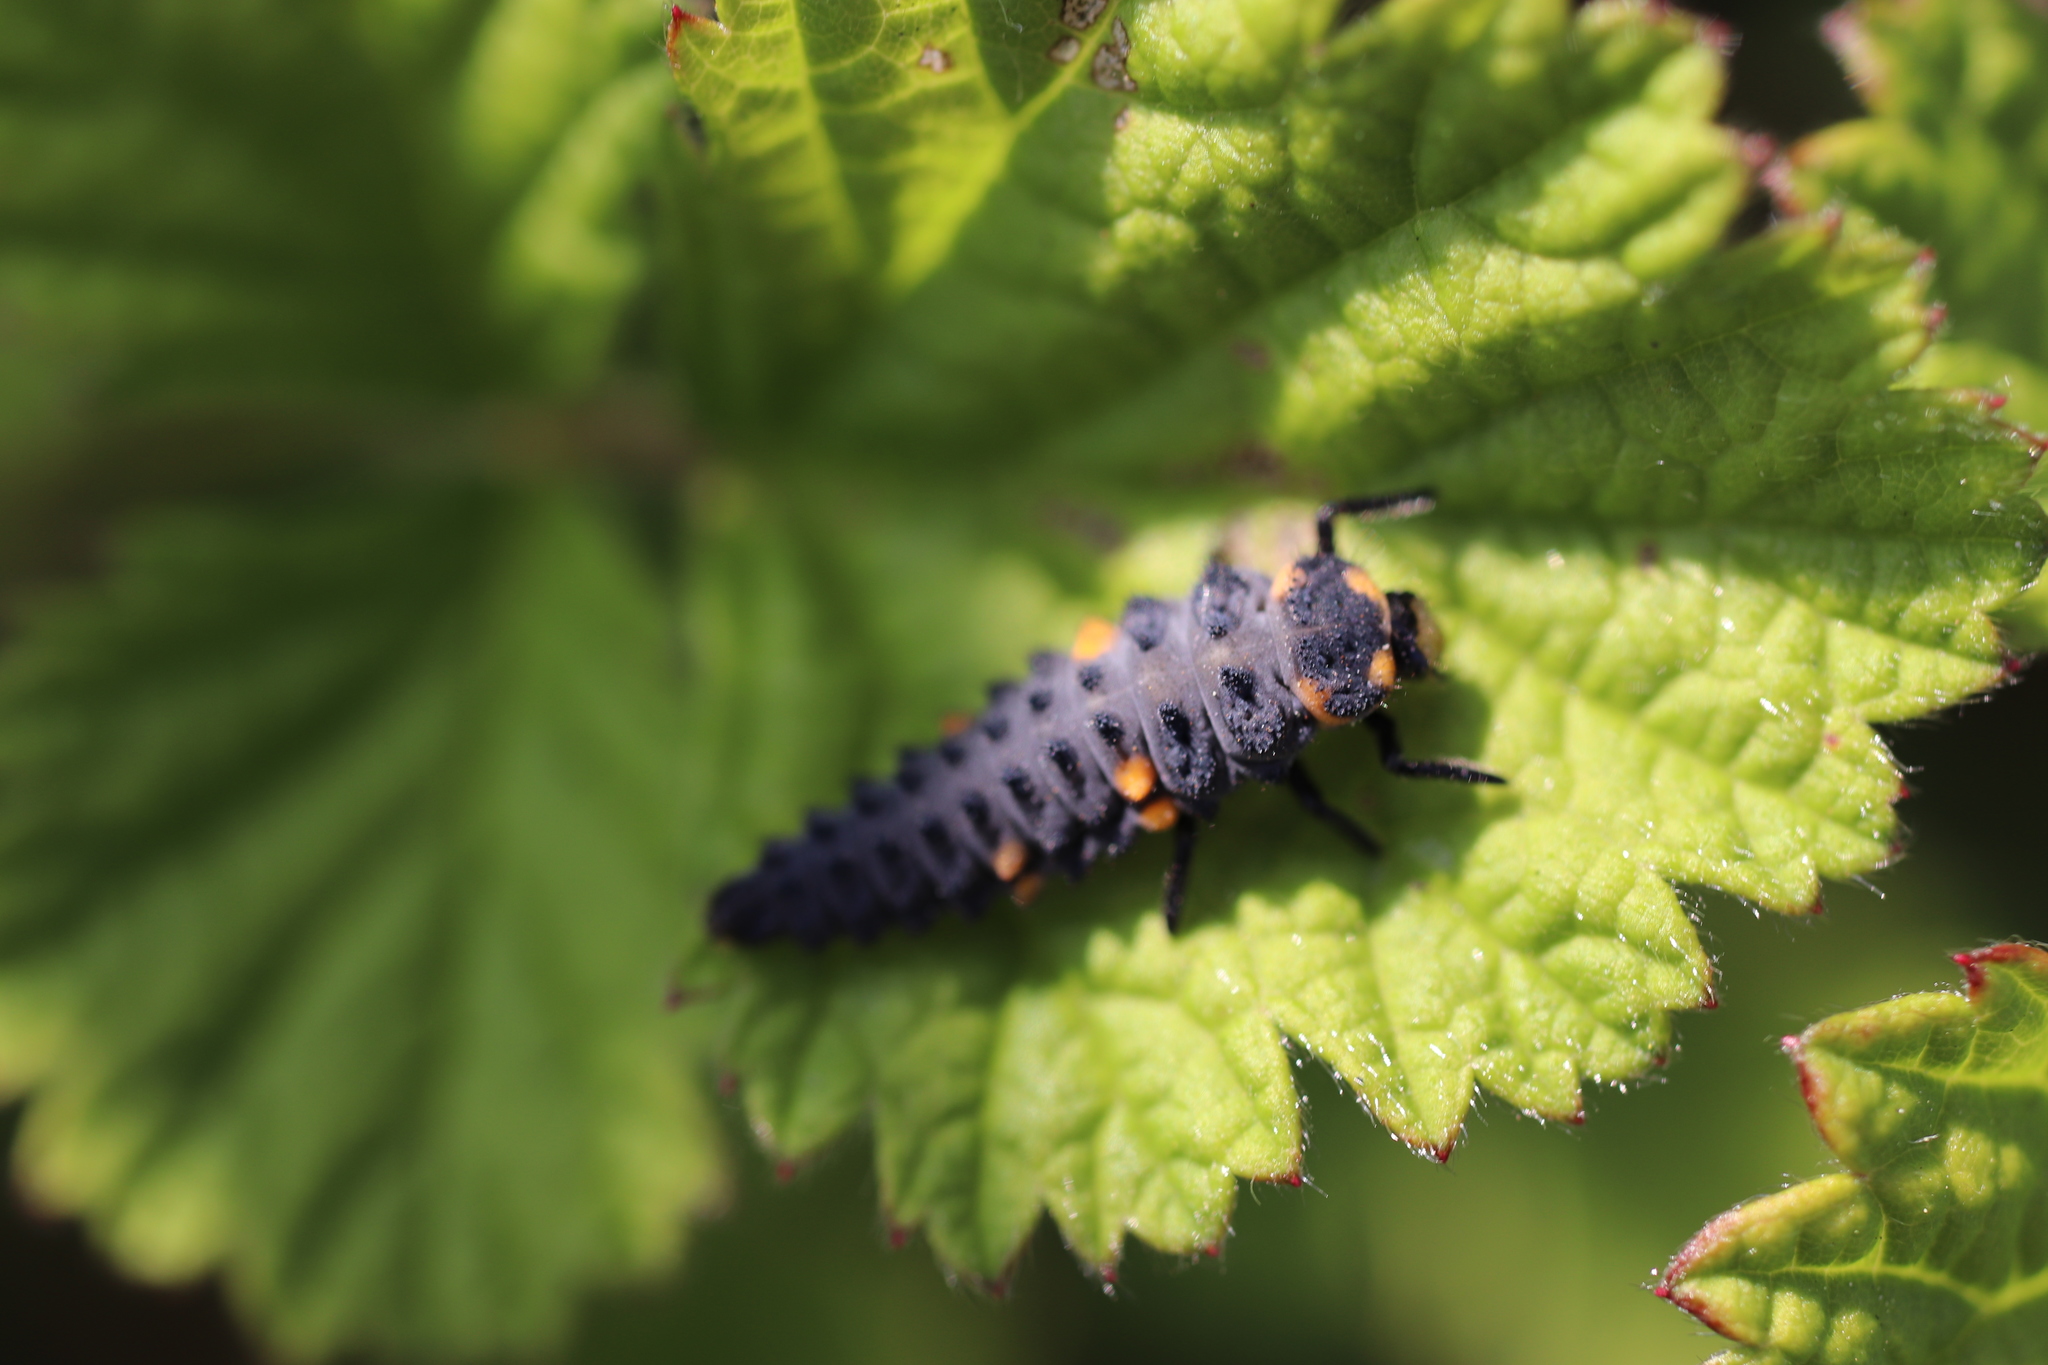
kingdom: Animalia
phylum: Arthropoda
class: Insecta
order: Coleoptera
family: Coccinellidae
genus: Coccinella
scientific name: Coccinella septempunctata
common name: Sevenspotted lady beetle
